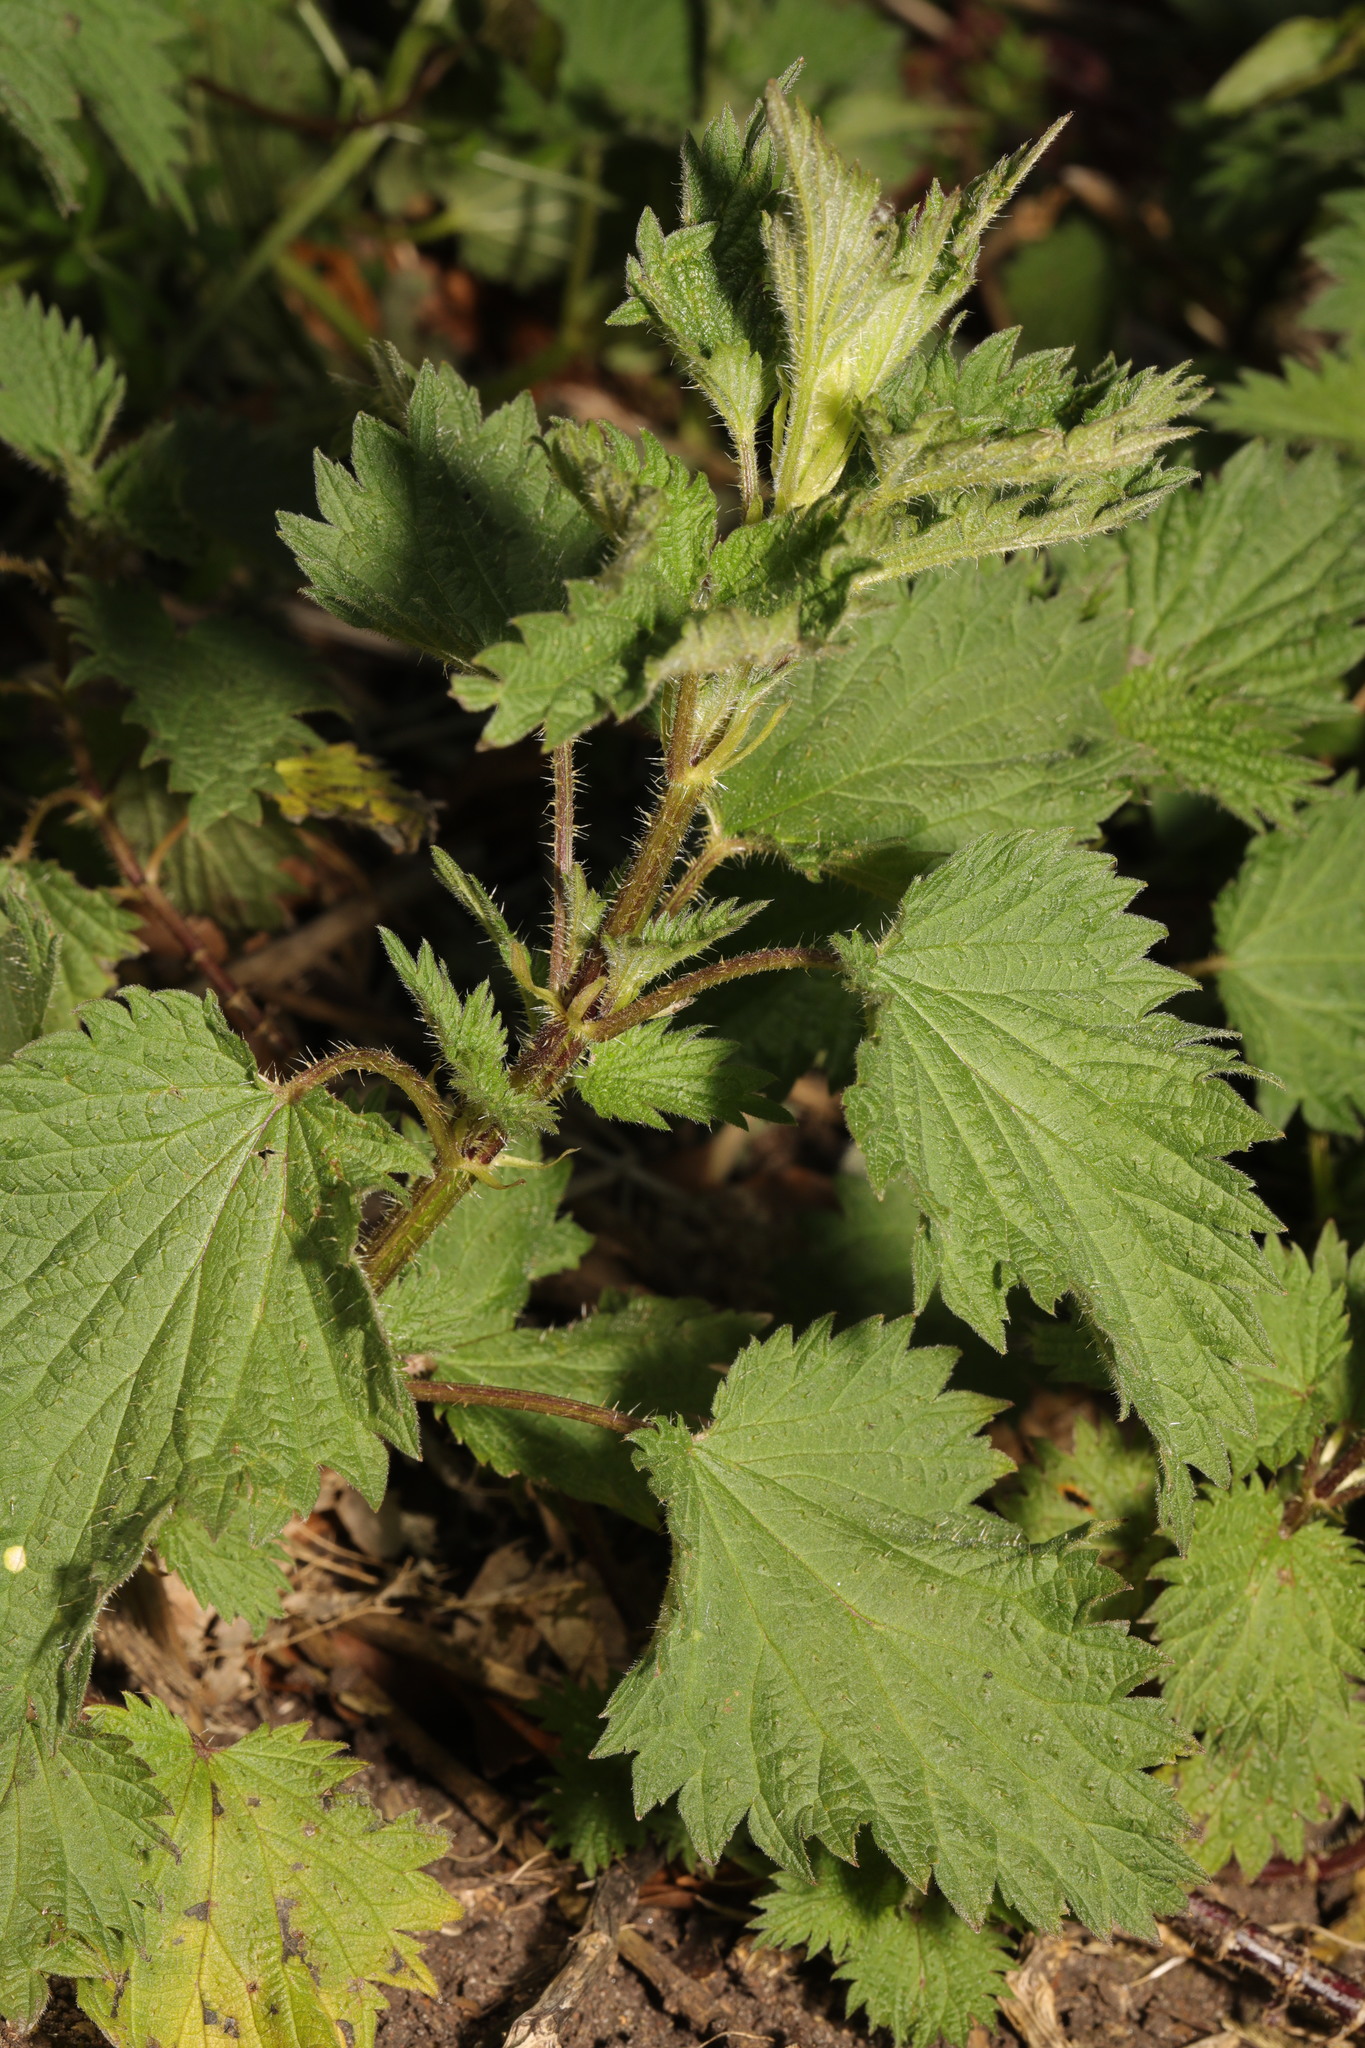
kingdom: Plantae
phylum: Tracheophyta
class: Magnoliopsida
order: Rosales
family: Urticaceae
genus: Urtica
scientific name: Urtica dioica
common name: Common nettle
